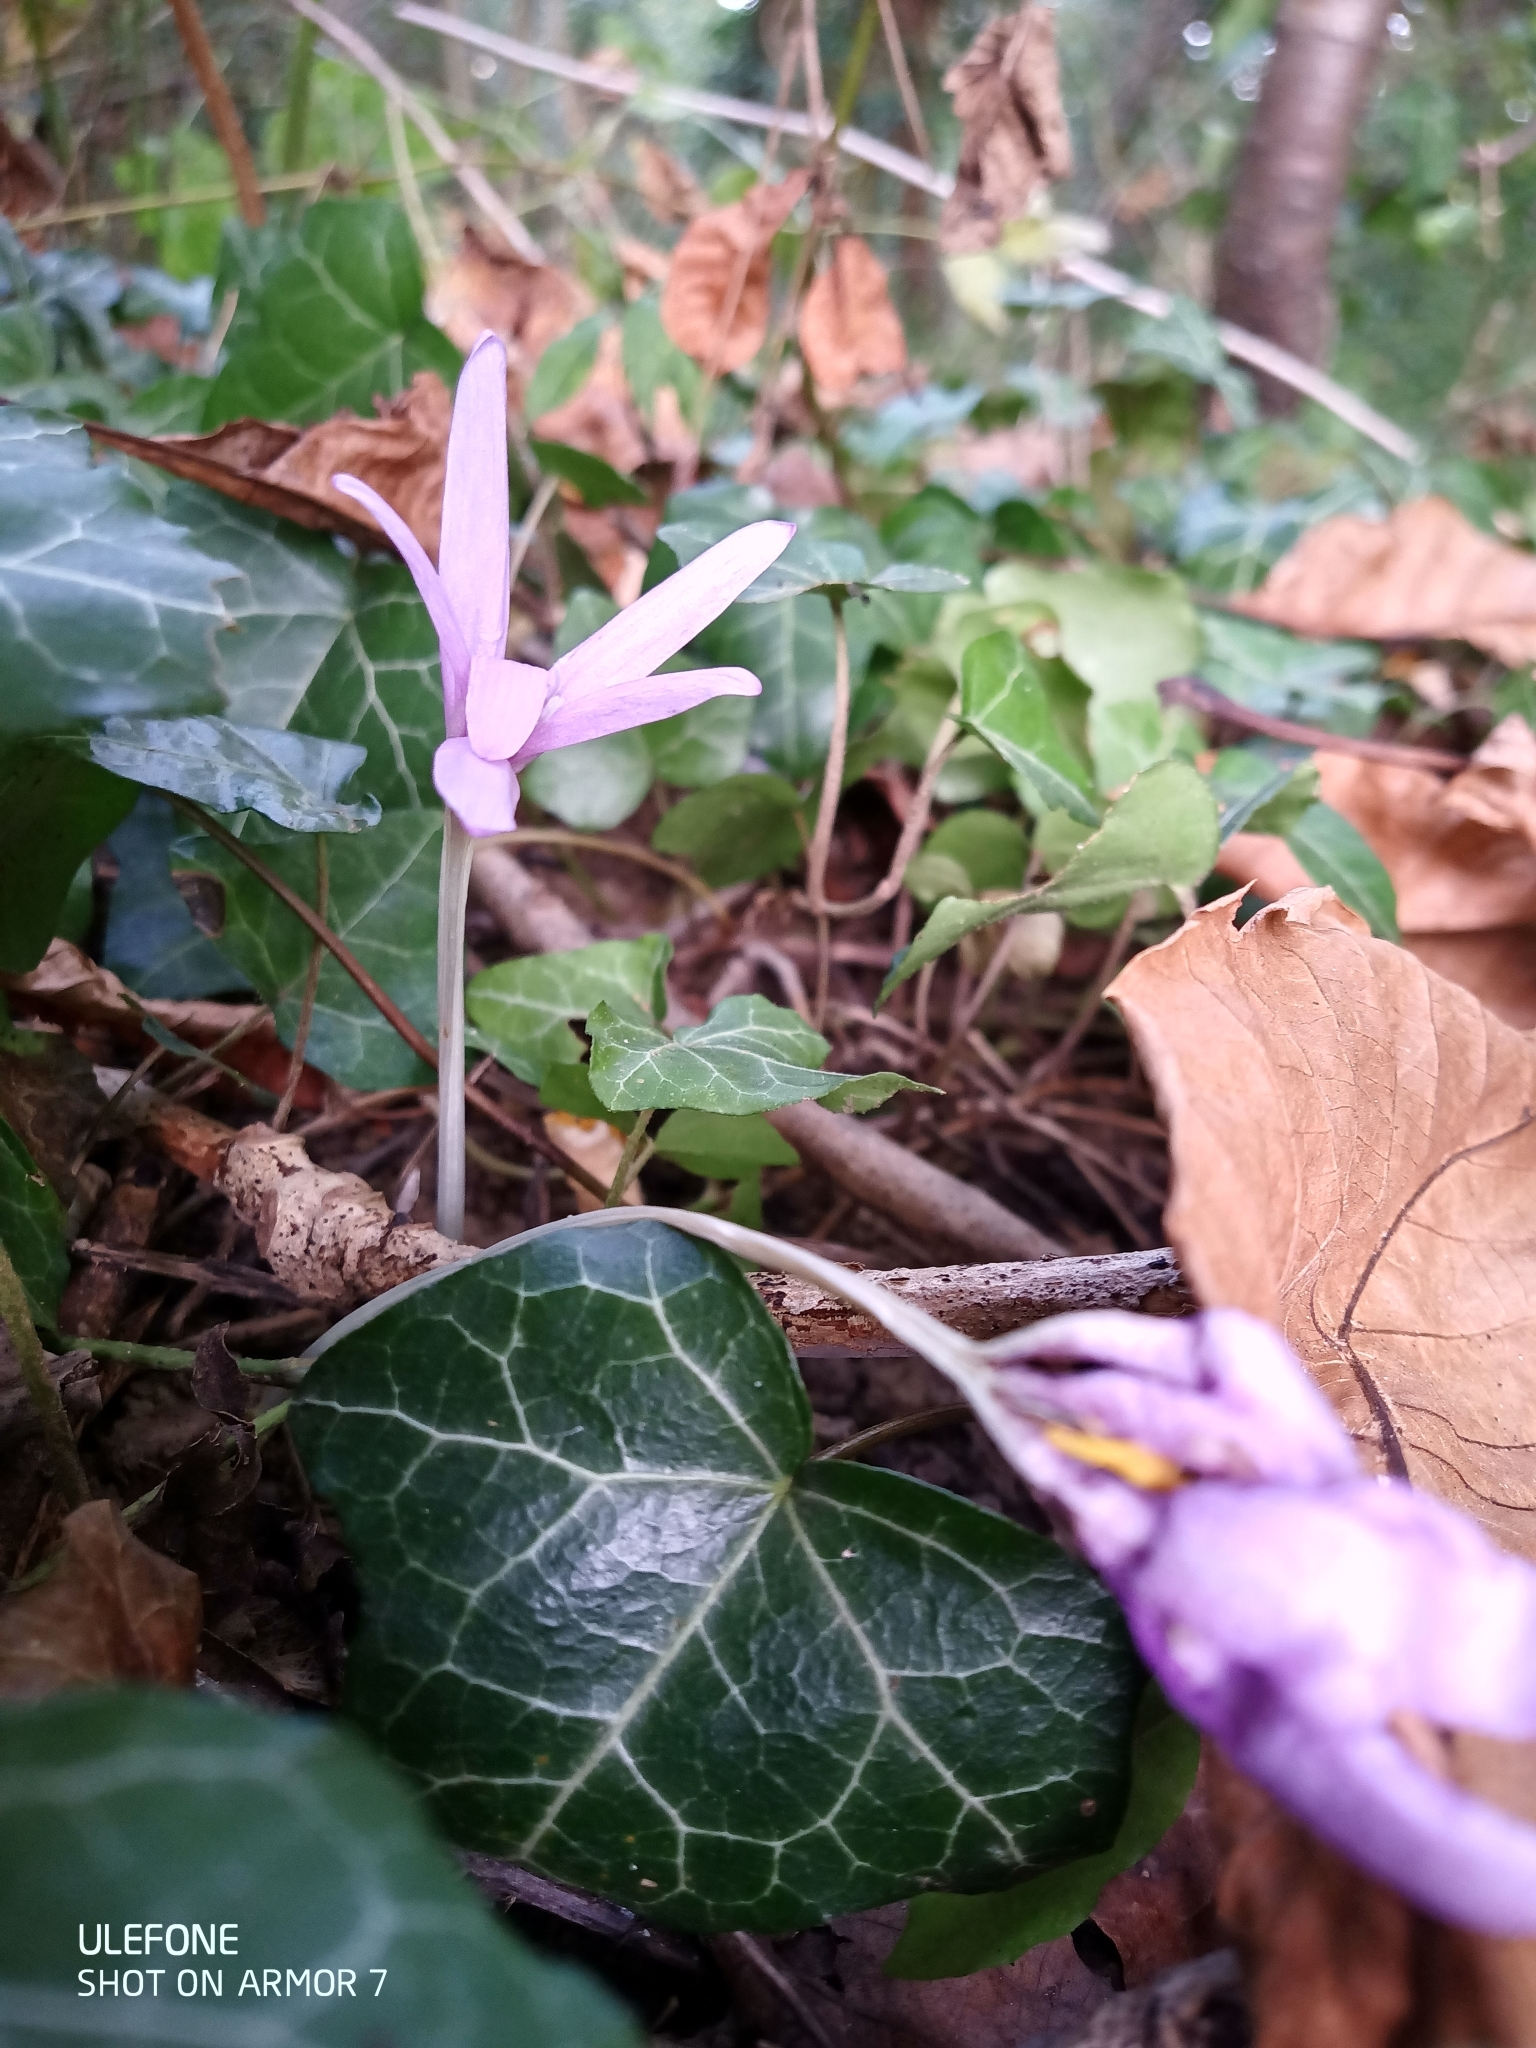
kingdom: Plantae
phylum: Tracheophyta
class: Liliopsida
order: Liliales
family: Colchicaceae
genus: Colchicum
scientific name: Colchicum autumnale
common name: Autumn crocus
